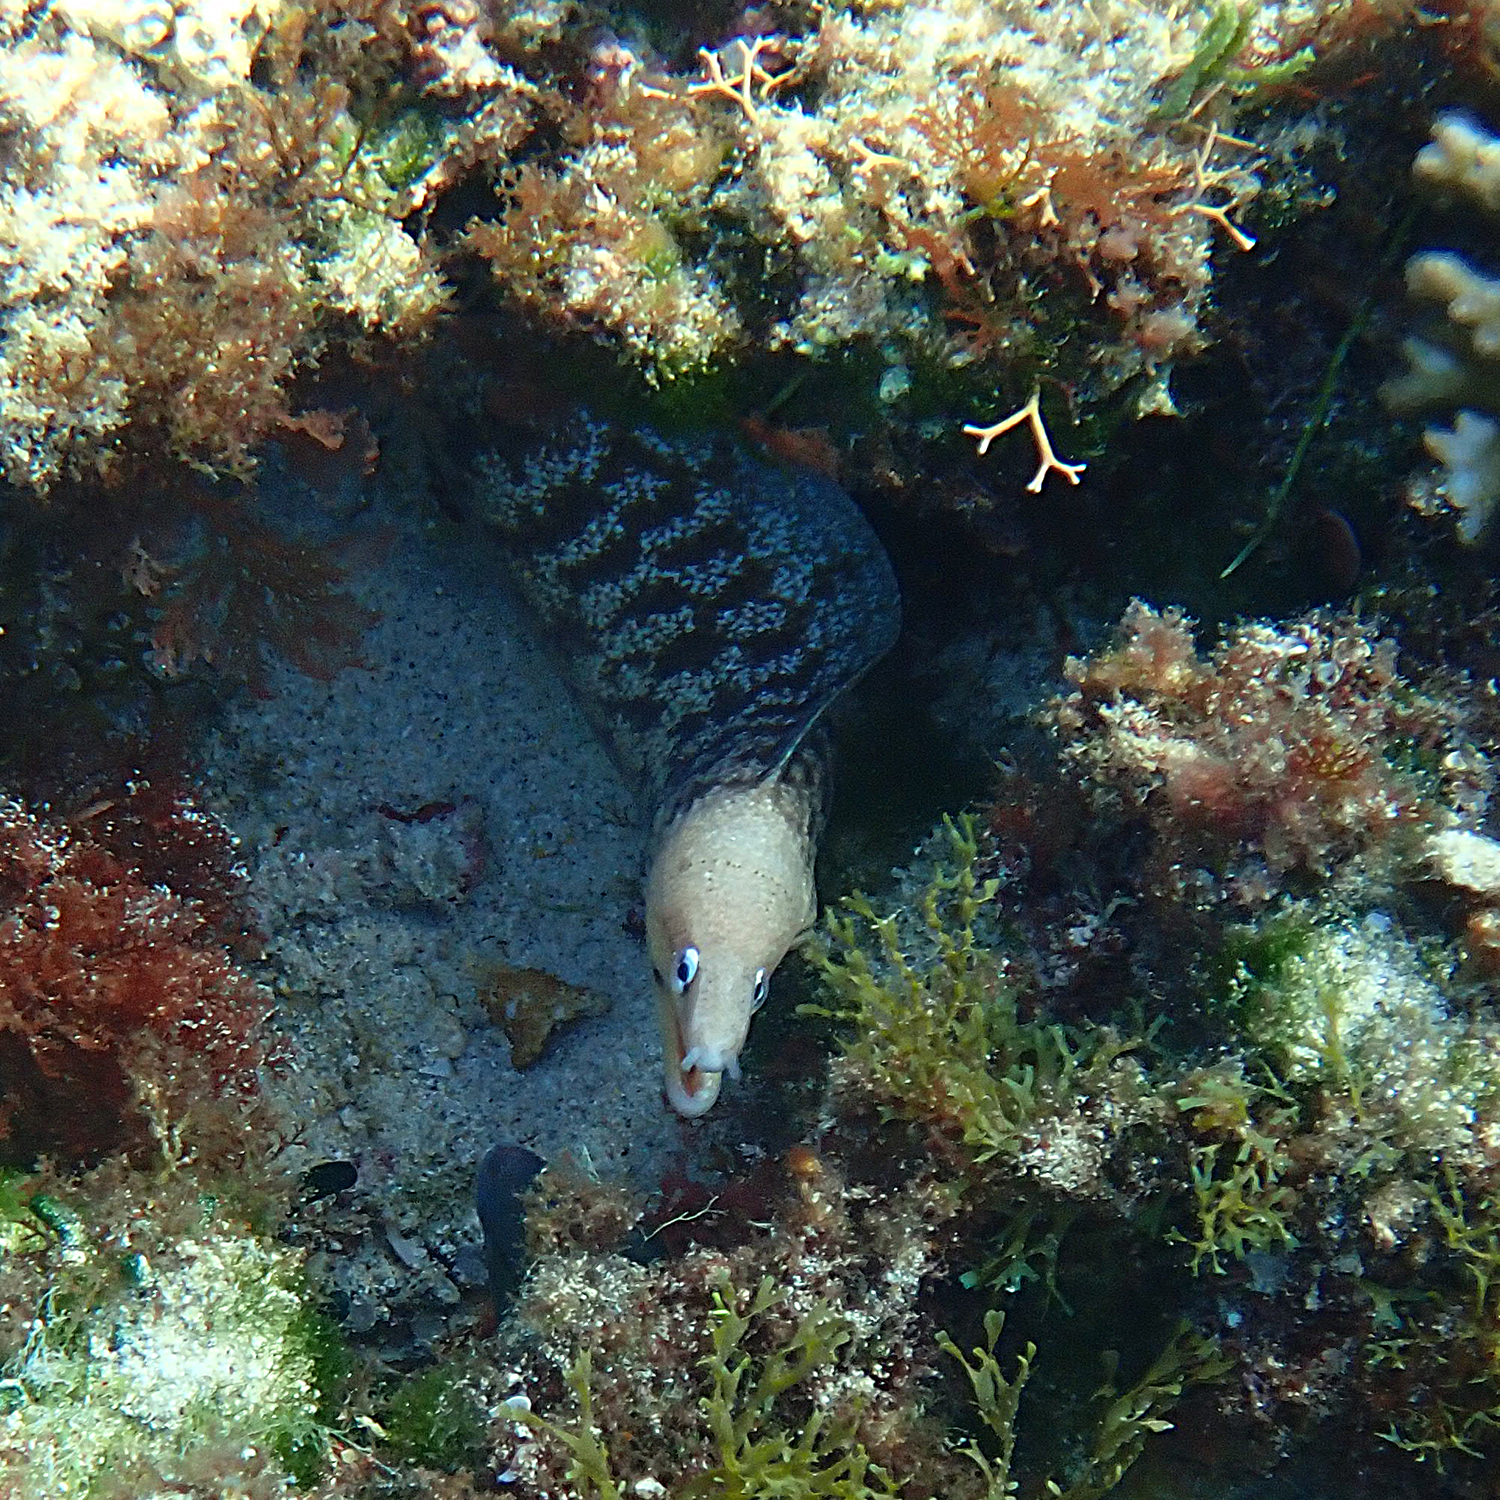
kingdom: Animalia
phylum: Chordata
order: Anguilliformes
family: Muraenidae
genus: Gymnothorax
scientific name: Gymnothorax nubilus
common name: Grey moray
